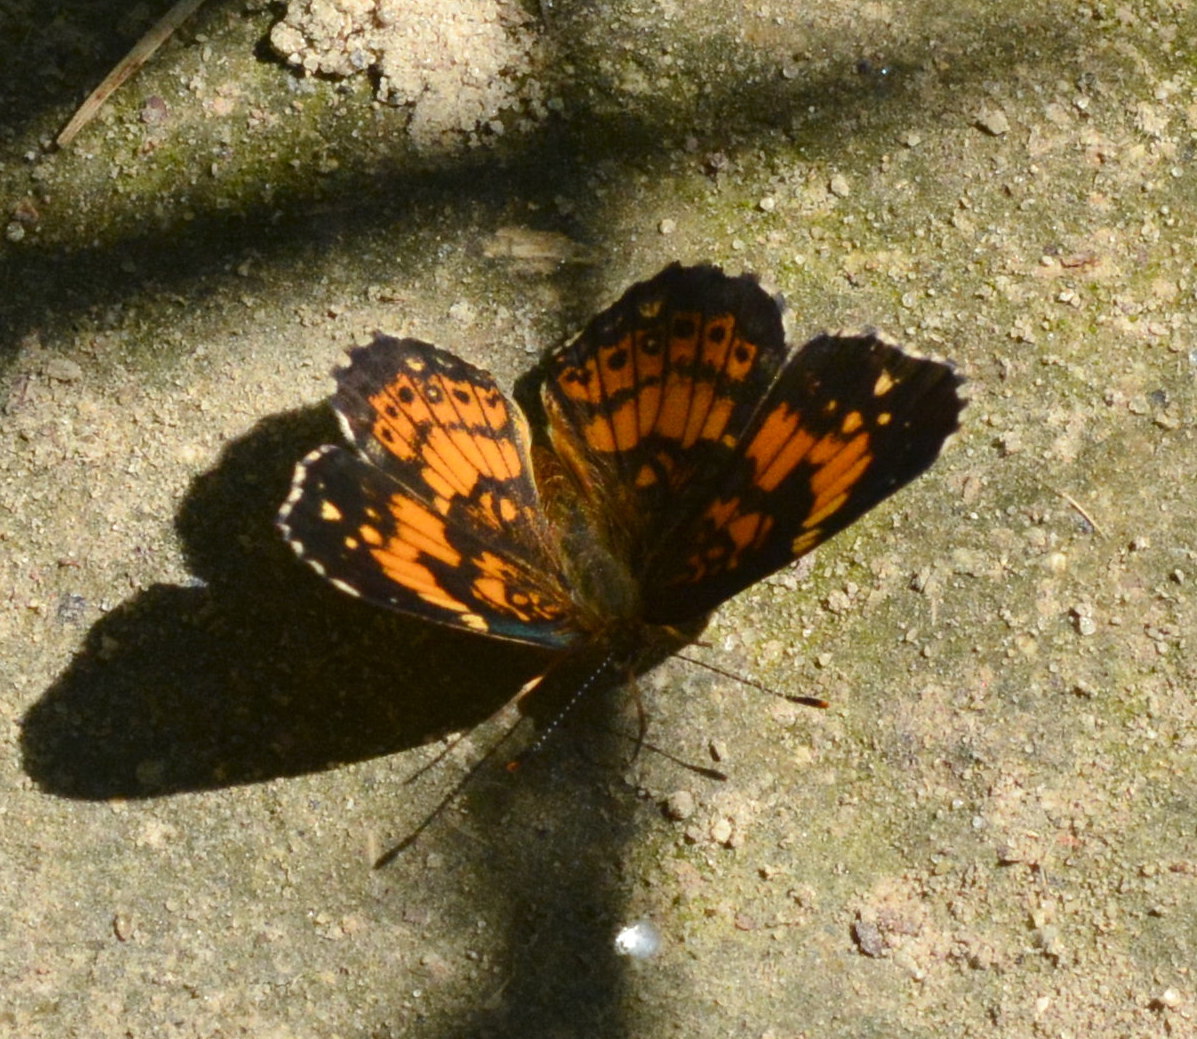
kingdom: Animalia
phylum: Arthropoda
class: Insecta
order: Lepidoptera
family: Nymphalidae
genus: Chlosyne
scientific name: Chlosyne nycteis
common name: Silvery checkerspot
